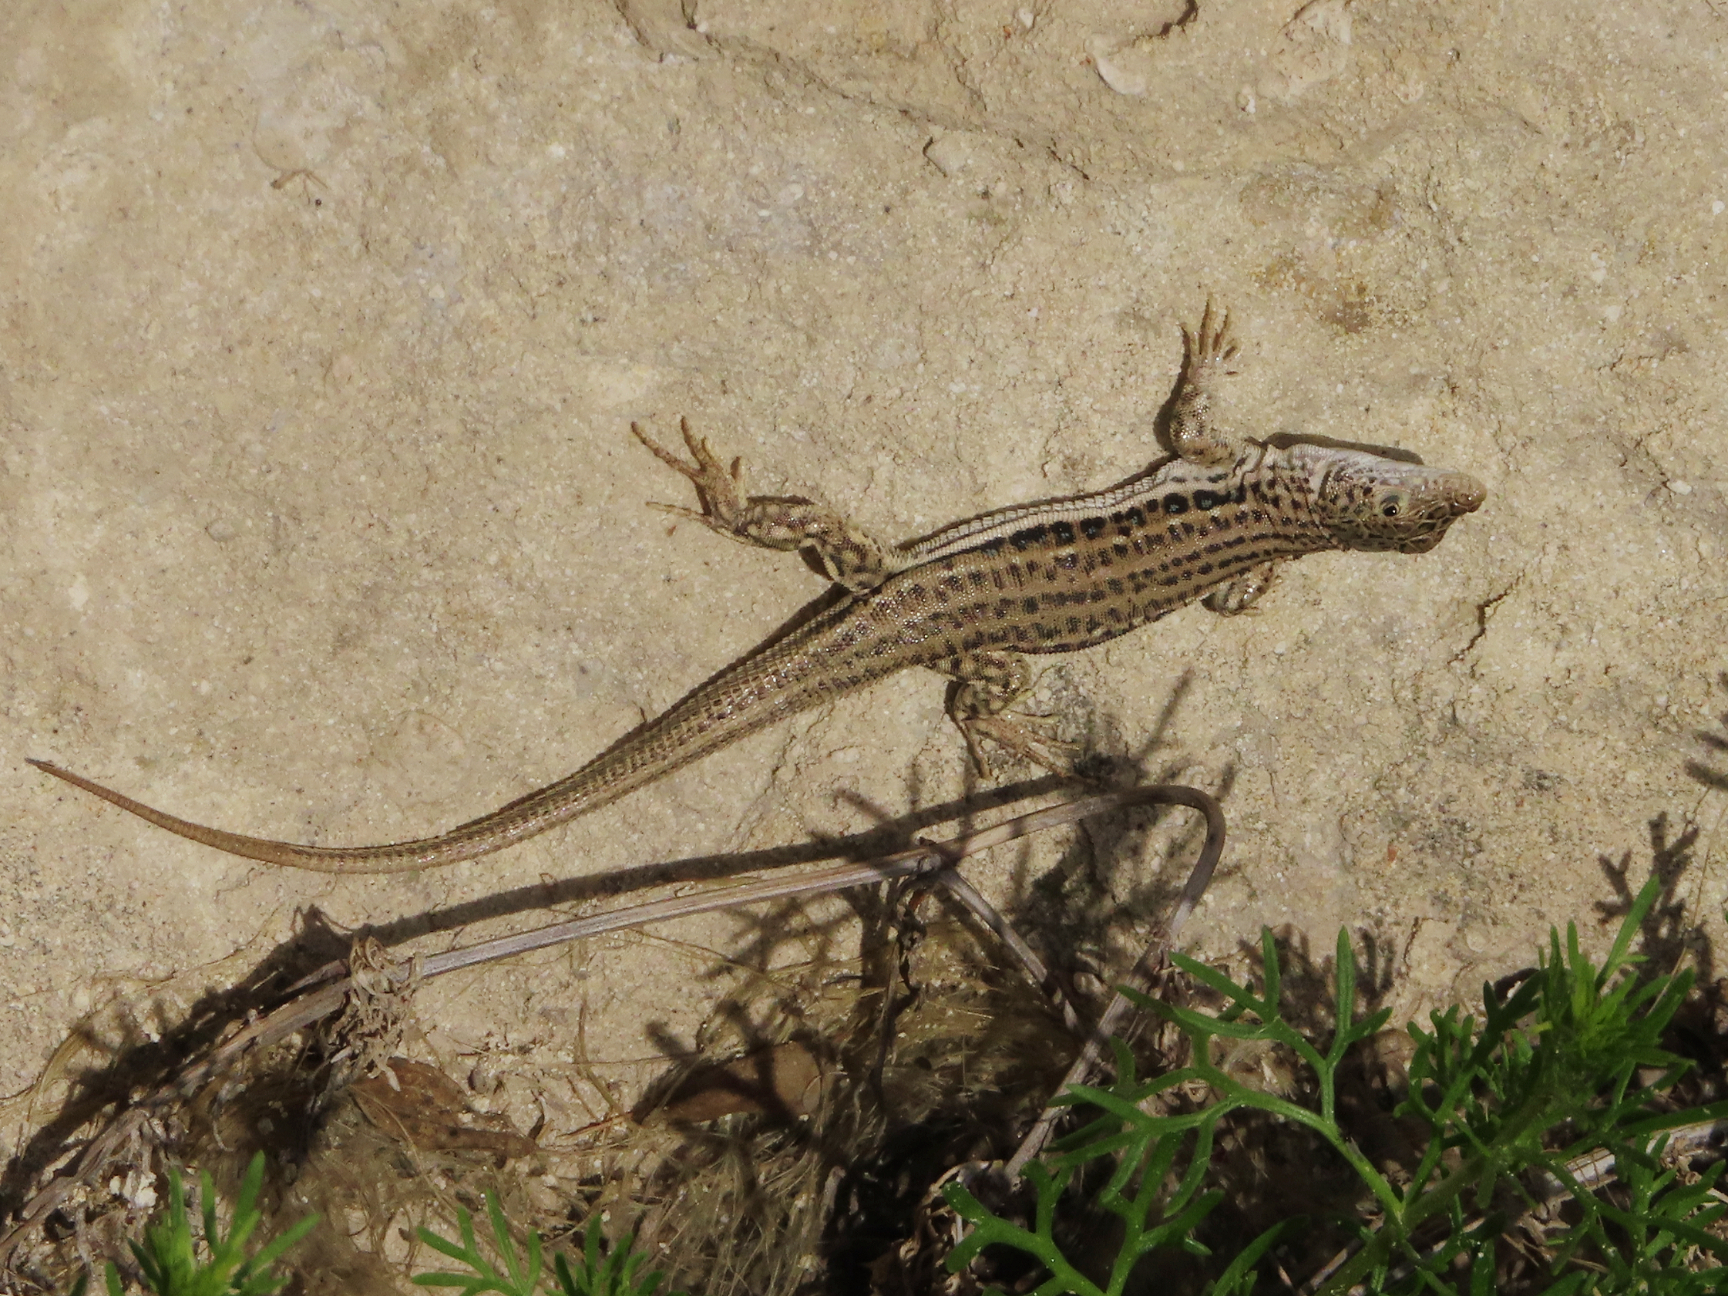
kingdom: Animalia
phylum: Chordata
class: Squamata
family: Lacertidae
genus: Eremias
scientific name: Eremias velox
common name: Central asian racerunner
